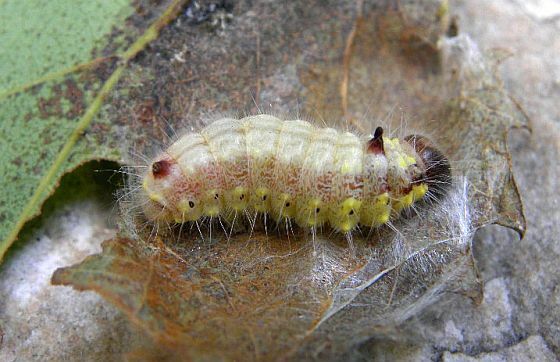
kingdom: Animalia
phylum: Arthropoda
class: Insecta
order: Lepidoptera
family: Notodontidae
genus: Clostera
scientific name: Clostera albosigma
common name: Sigmoid prominent
